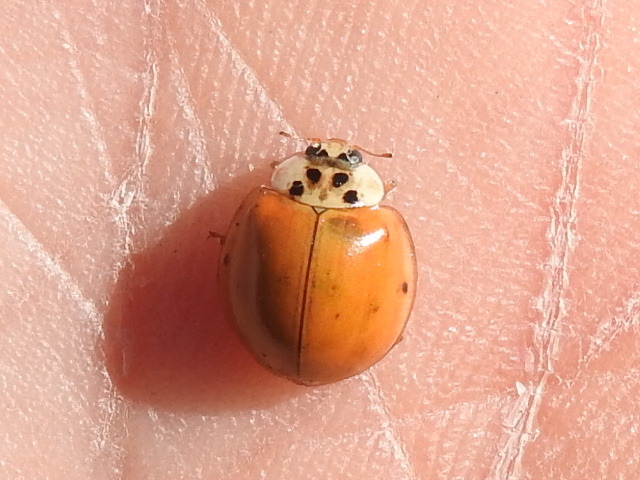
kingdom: Animalia
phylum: Arthropoda
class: Insecta
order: Coleoptera
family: Coccinellidae
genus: Harmonia
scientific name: Harmonia axyridis
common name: Harlequin ladybird
